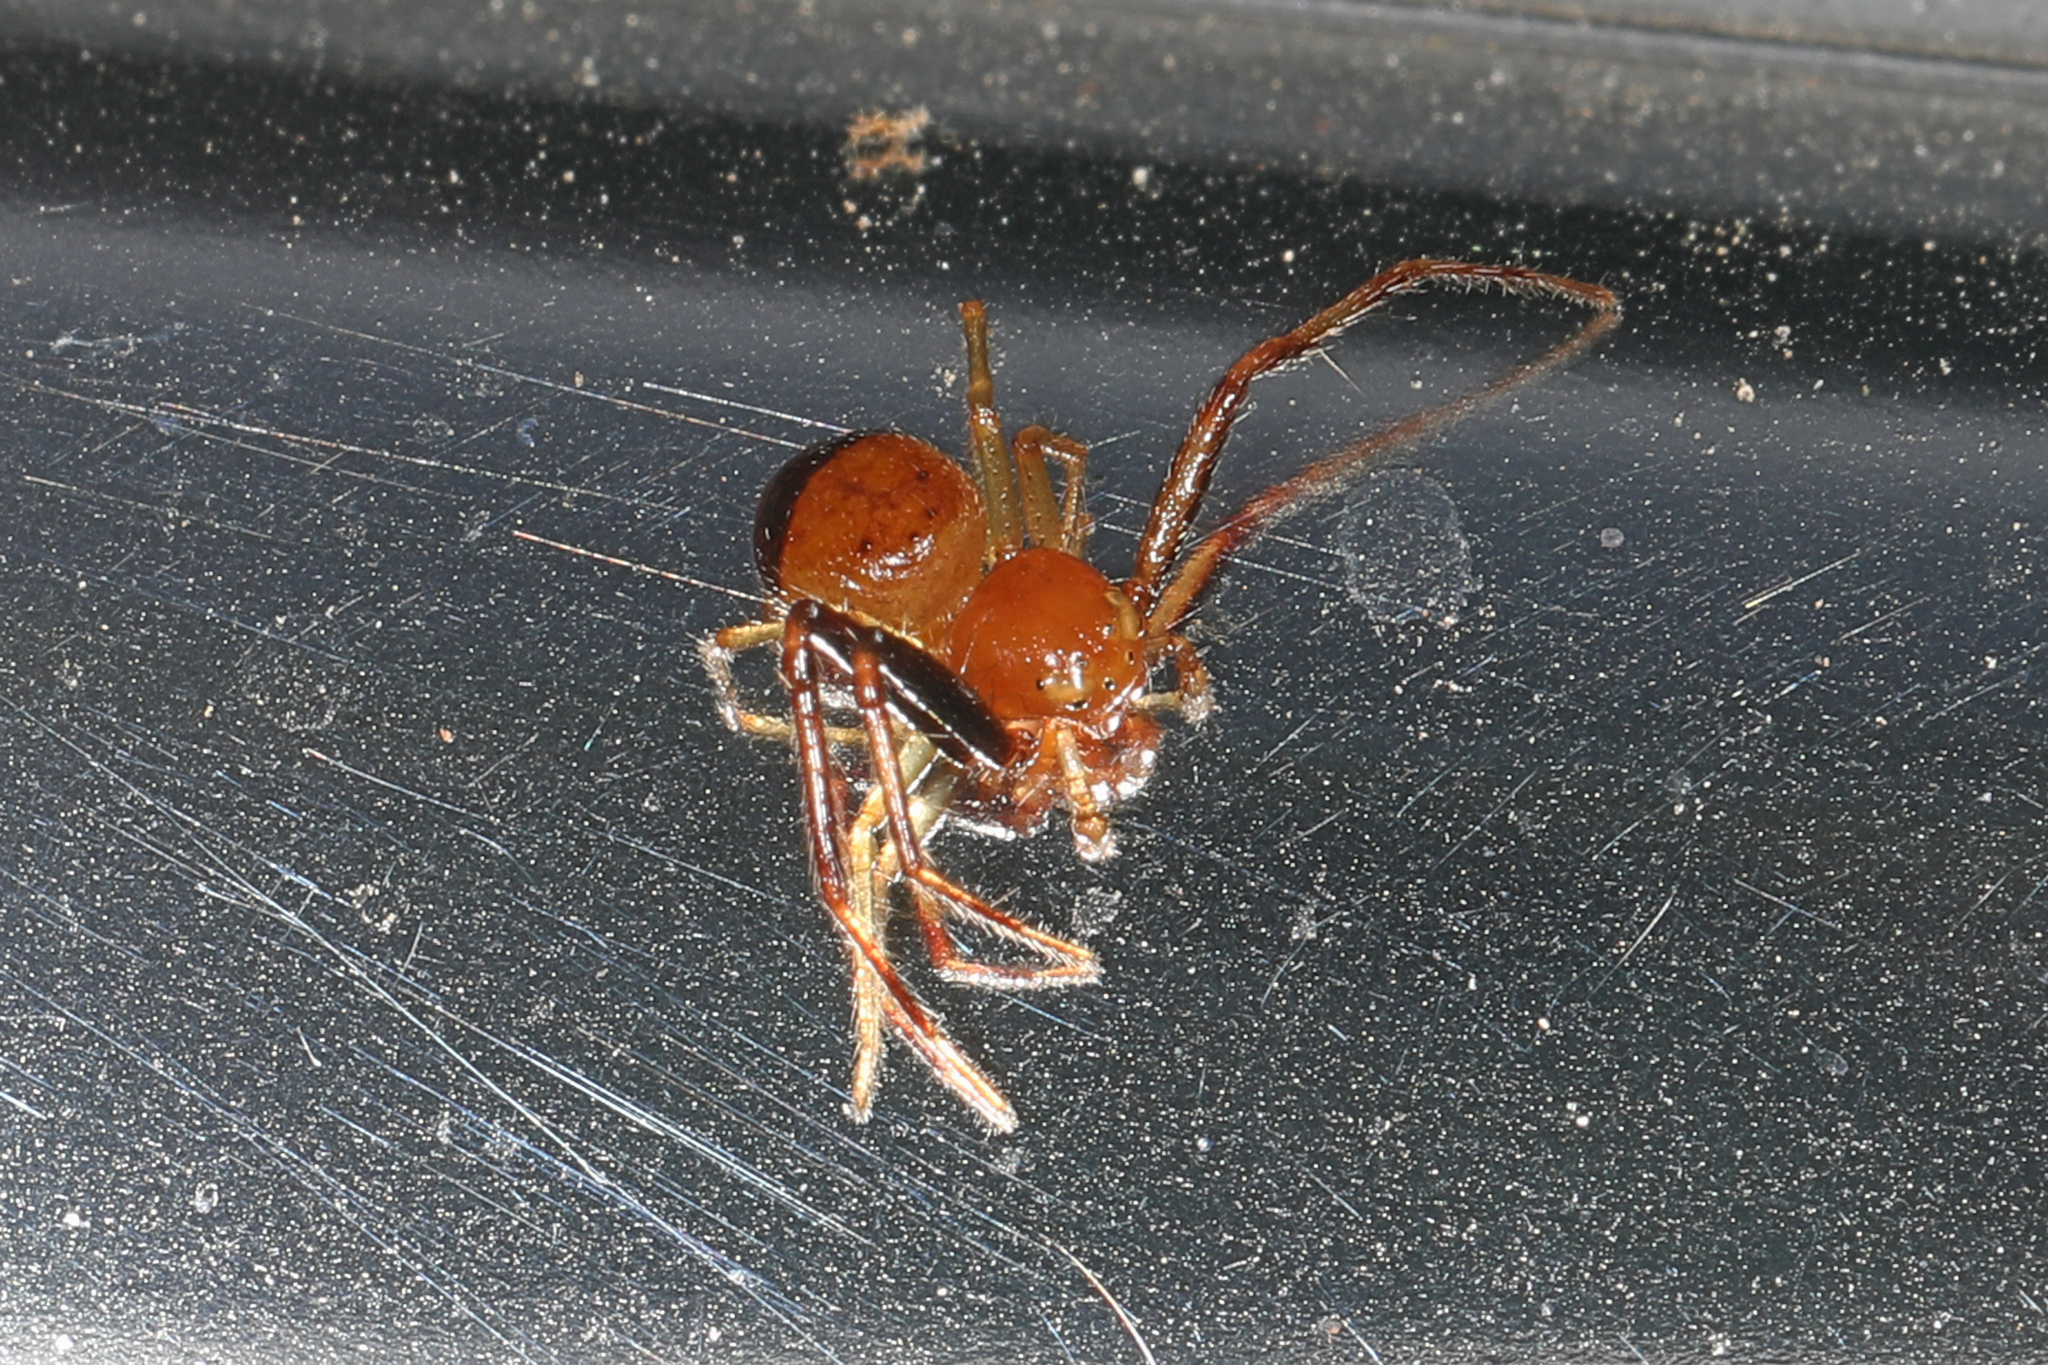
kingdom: Animalia
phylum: Arthropoda
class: Arachnida
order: Araneae
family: Thomisidae
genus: Synema
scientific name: Synema parvulum
